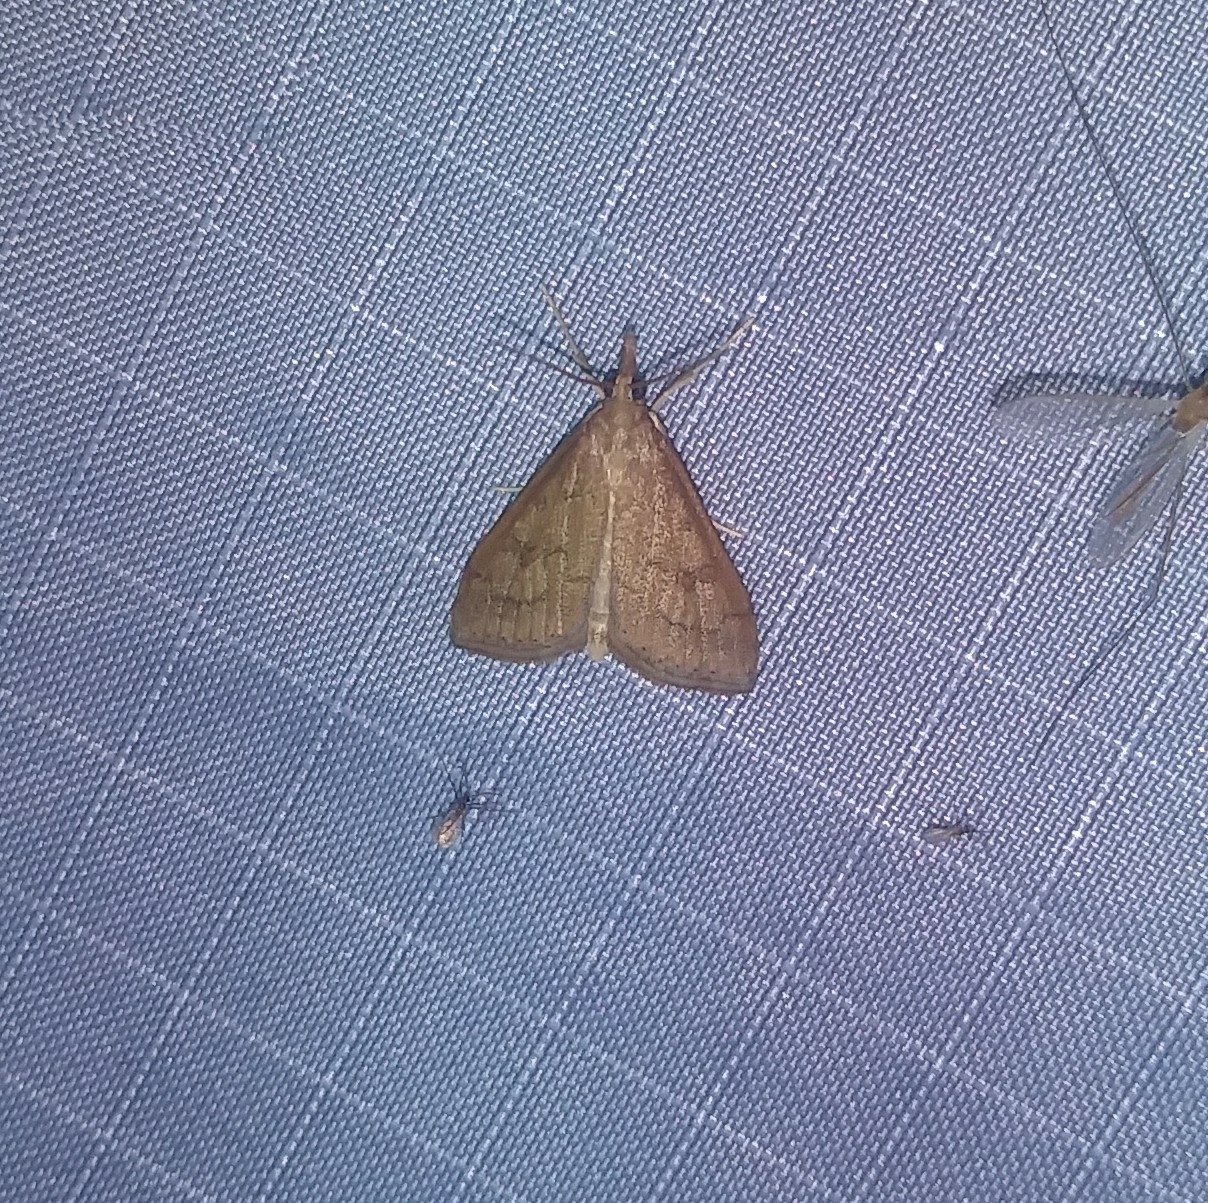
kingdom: Animalia
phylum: Arthropoda
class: Insecta
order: Lepidoptera
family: Crambidae
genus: Udea
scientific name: Udea rubigalis
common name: Celery leaftier moth
